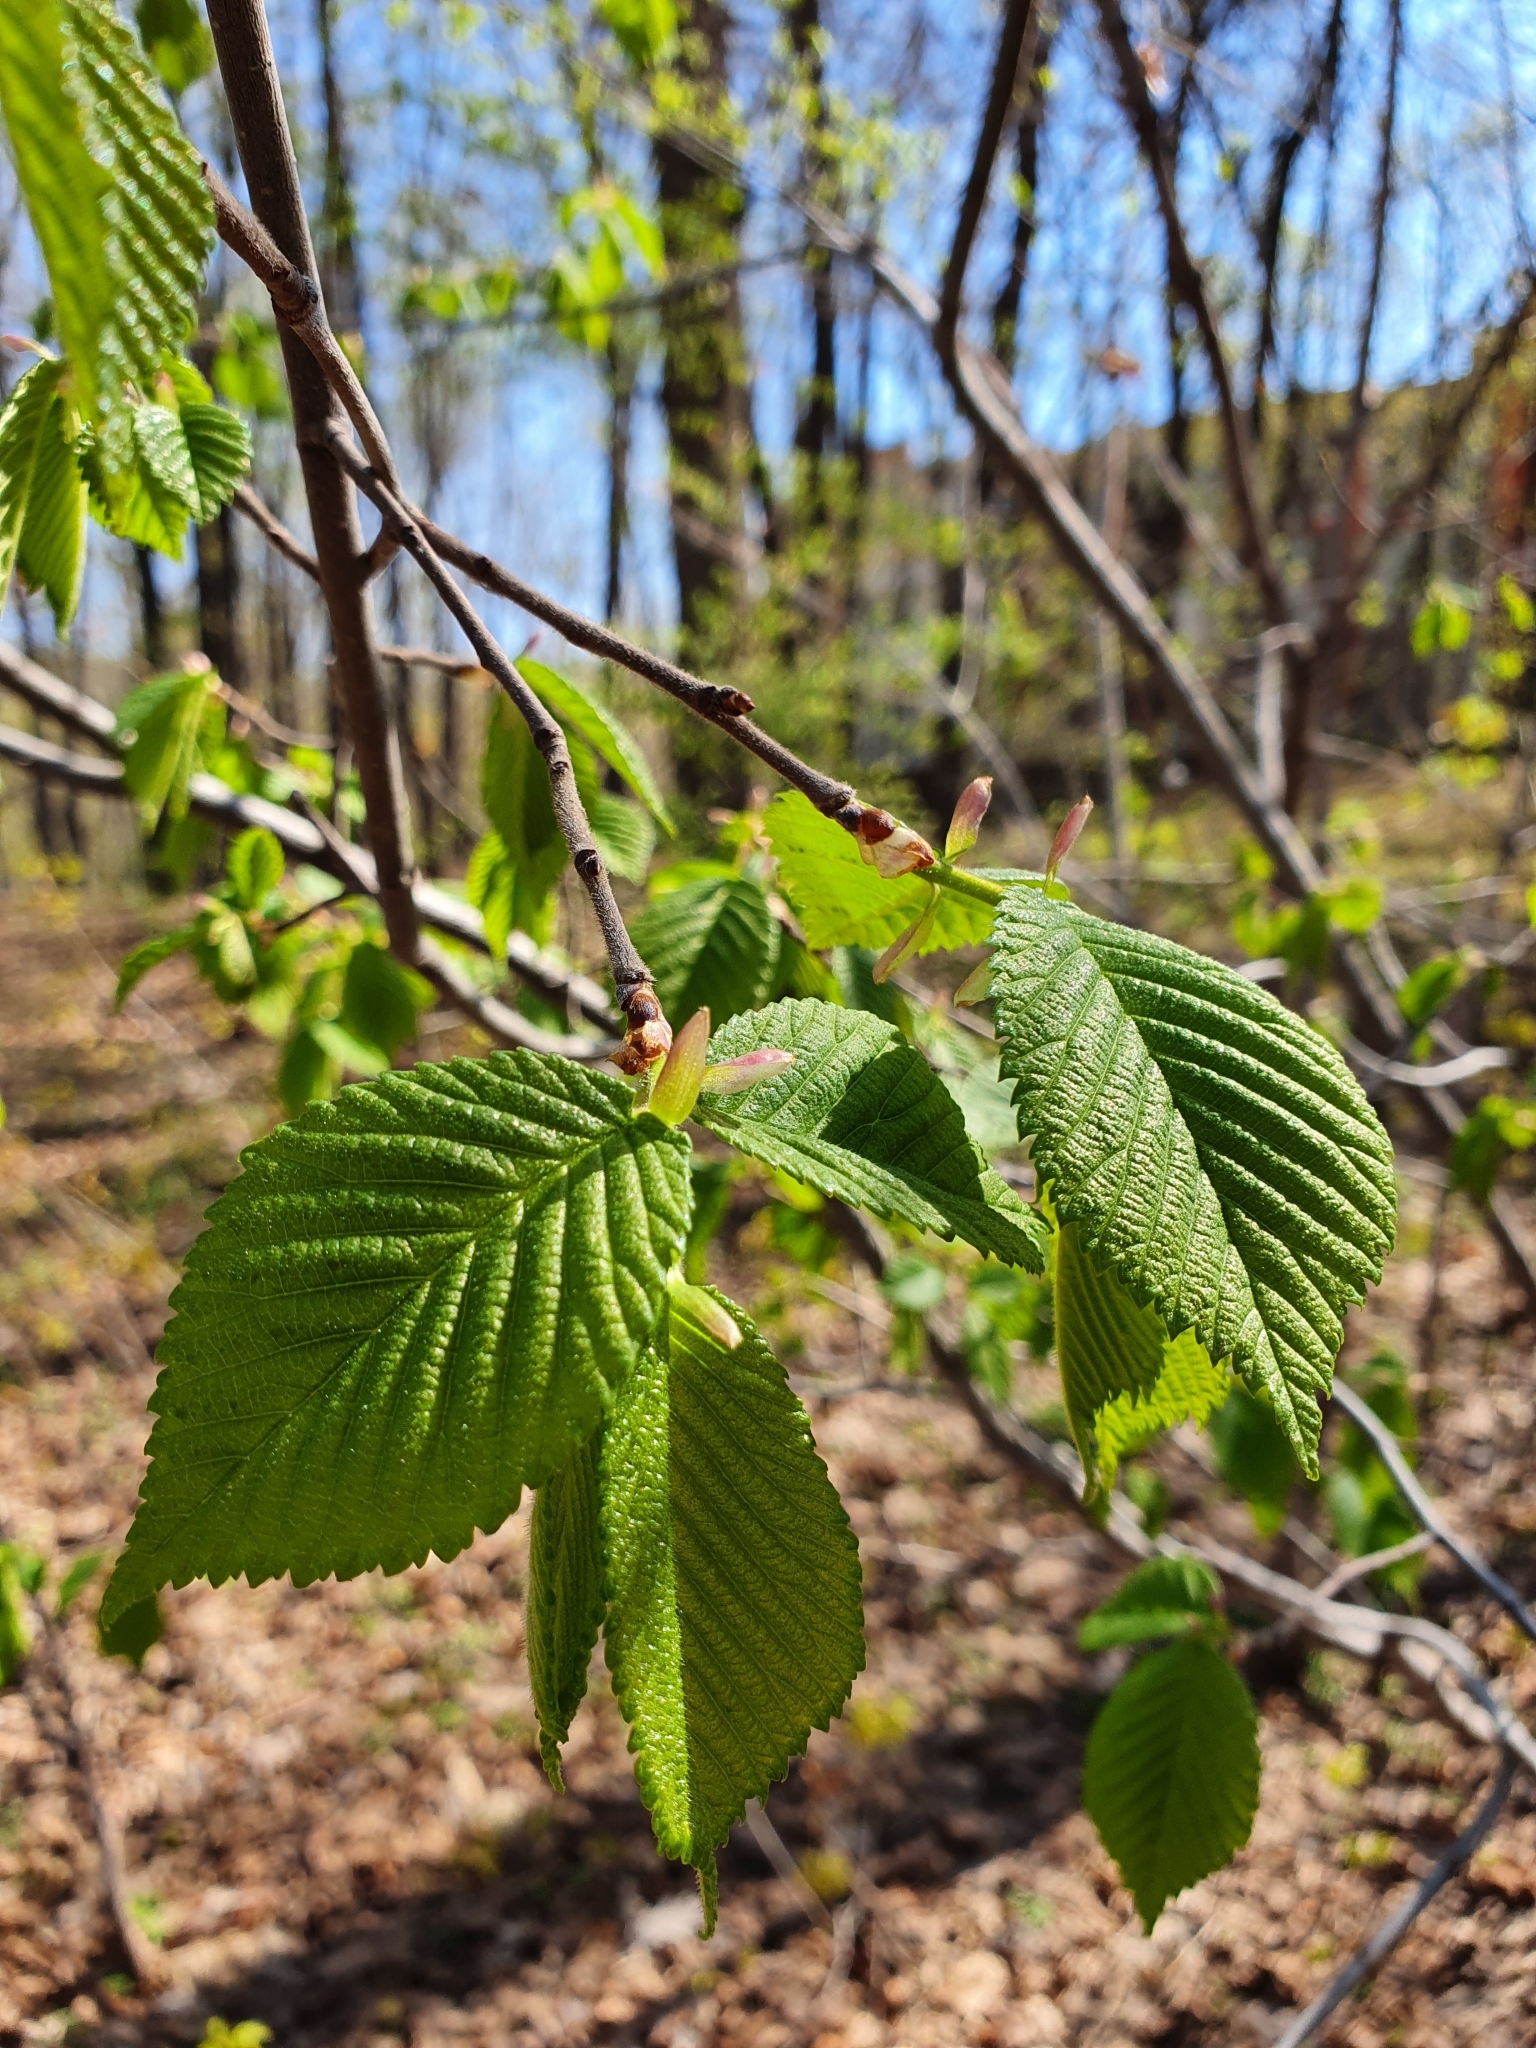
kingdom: Plantae
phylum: Tracheophyta
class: Magnoliopsida
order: Fagales
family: Betulaceae
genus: Corylus
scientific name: Corylus avellana
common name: European hazel
